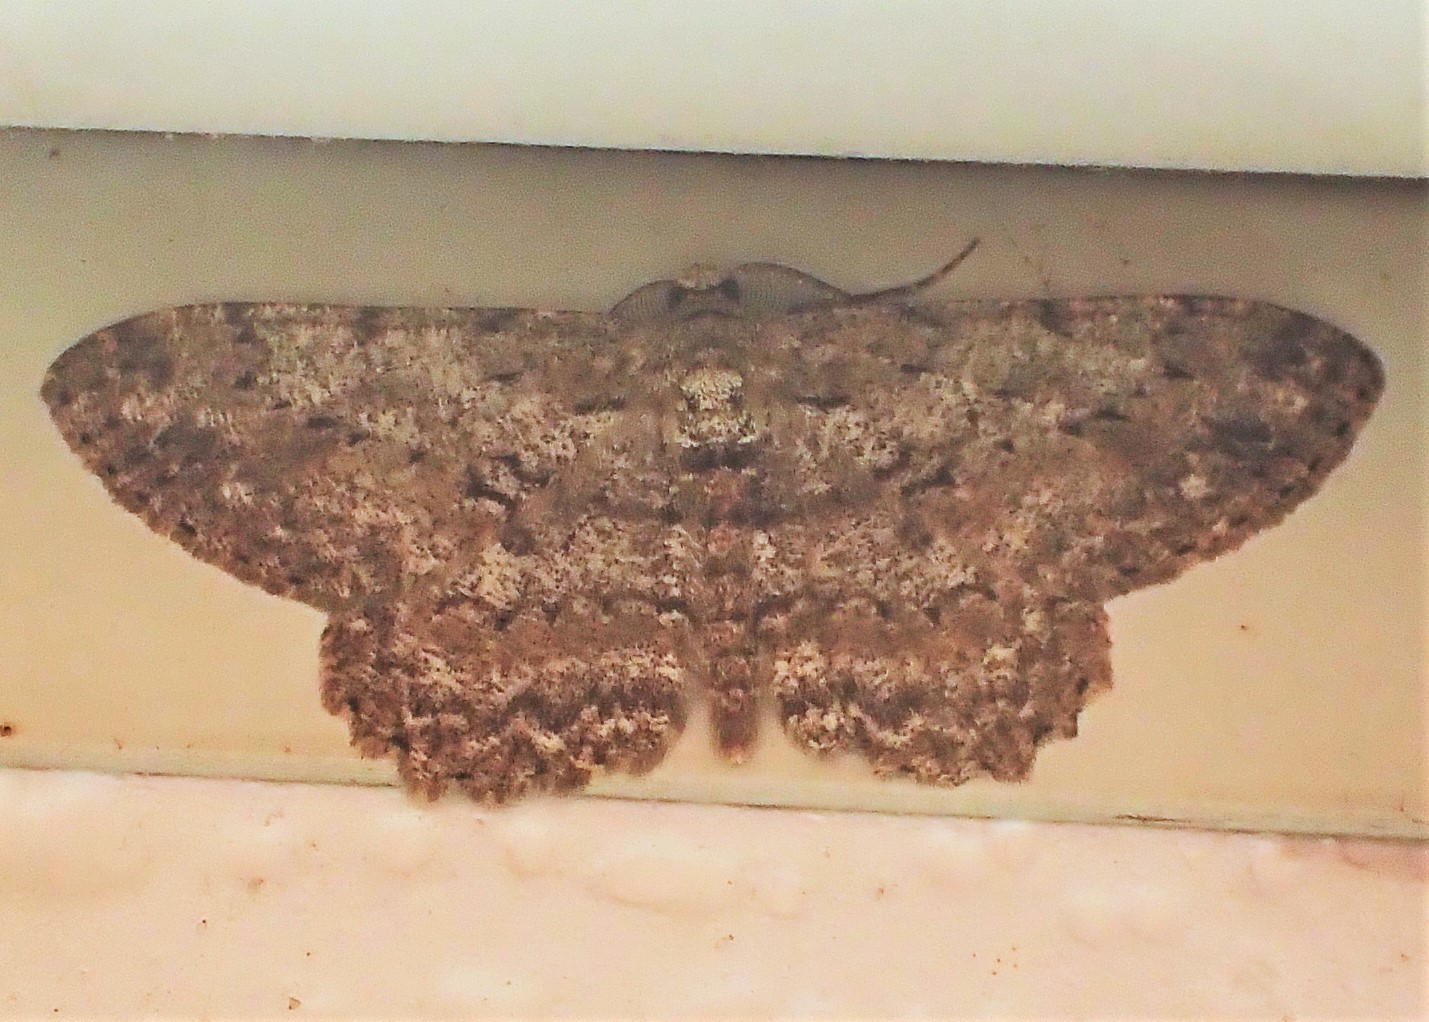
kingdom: Animalia
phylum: Arthropoda
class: Insecta
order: Lepidoptera
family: Geometridae
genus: Hypomecis
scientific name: Hypomecis punctinalis
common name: Pale oak beauty
